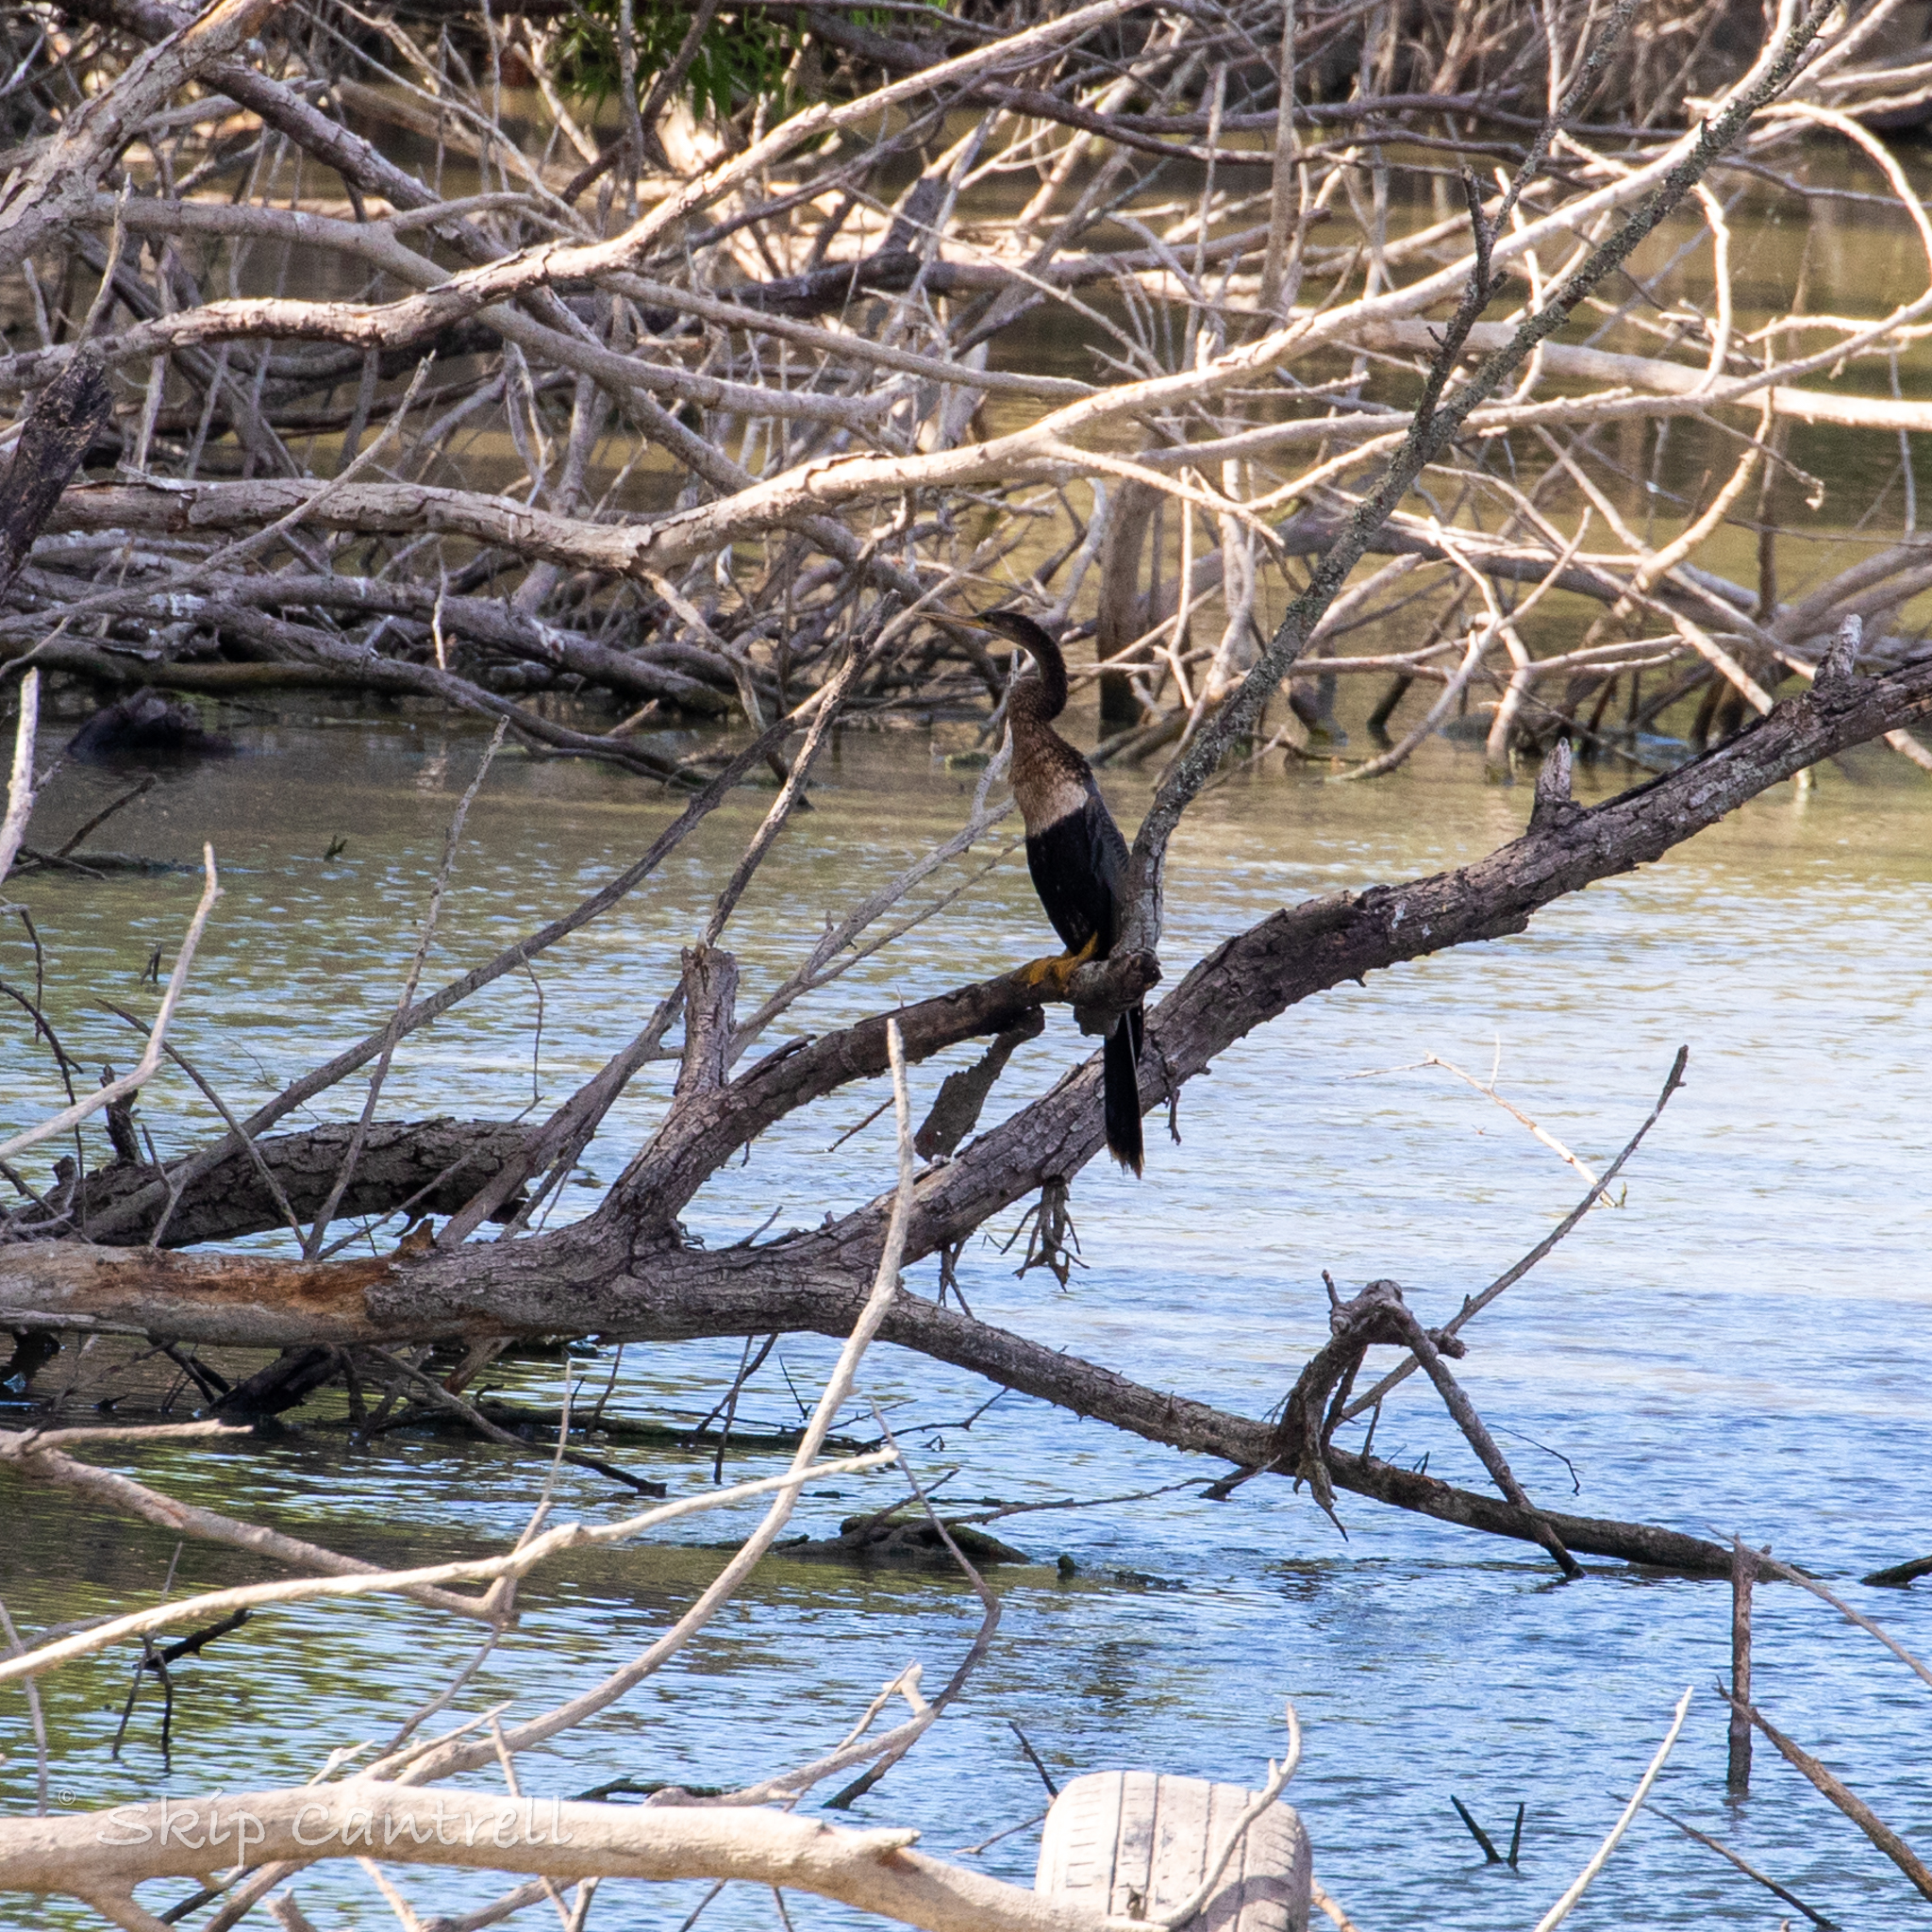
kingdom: Animalia
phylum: Chordata
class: Aves
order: Suliformes
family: Anhingidae
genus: Anhinga
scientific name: Anhinga anhinga
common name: Anhinga
